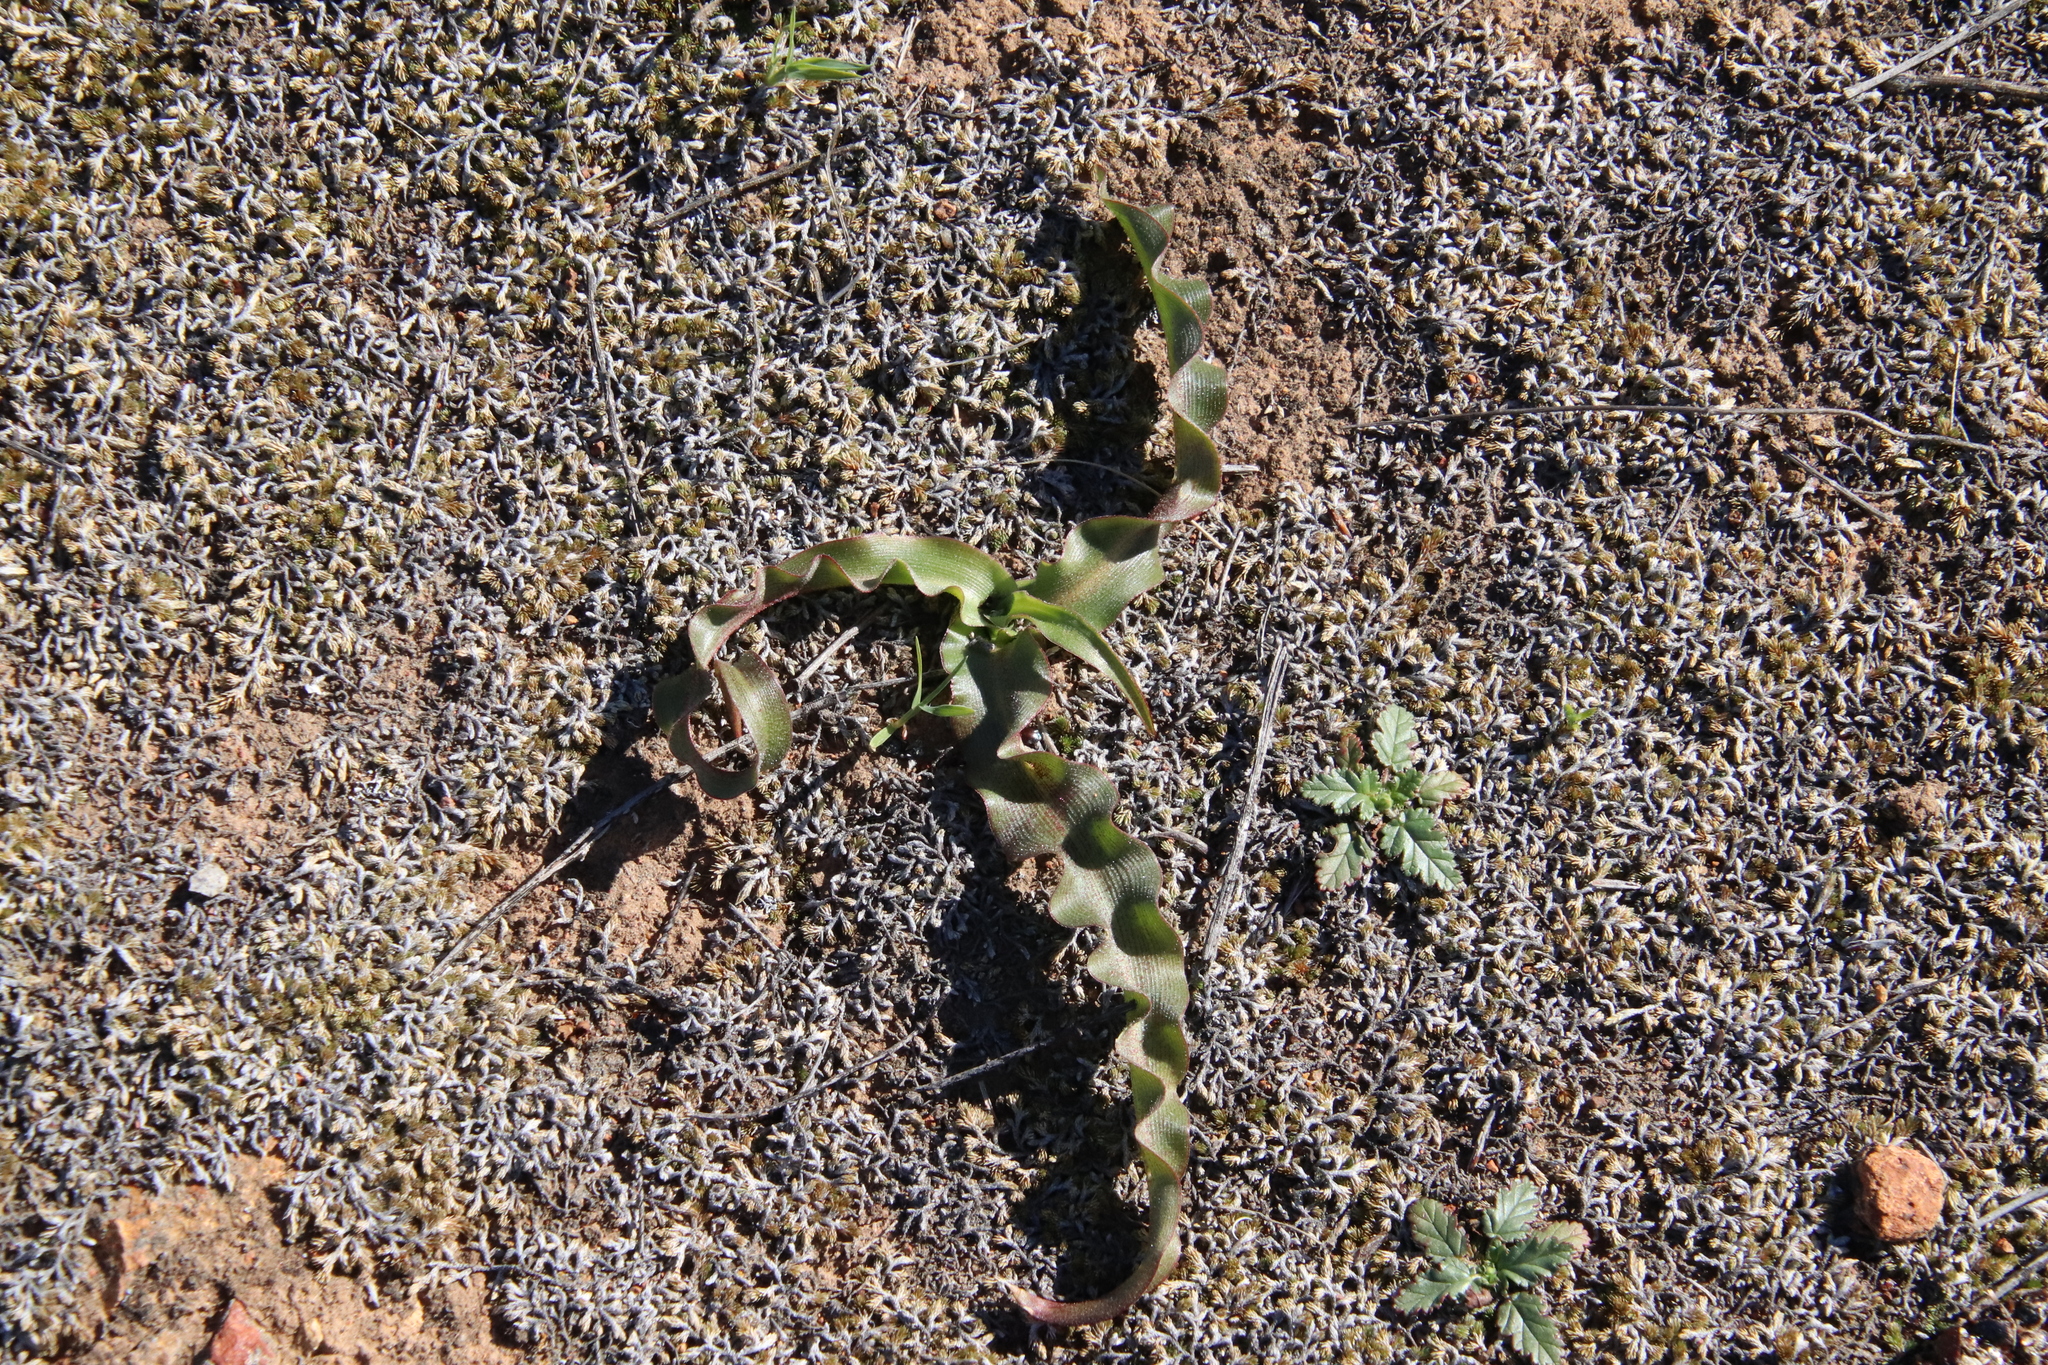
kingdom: Plantae
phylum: Tracheophyta
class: Liliopsida
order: Asparagales
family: Asparagaceae
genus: Hooveria
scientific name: Hooveria parviflora
